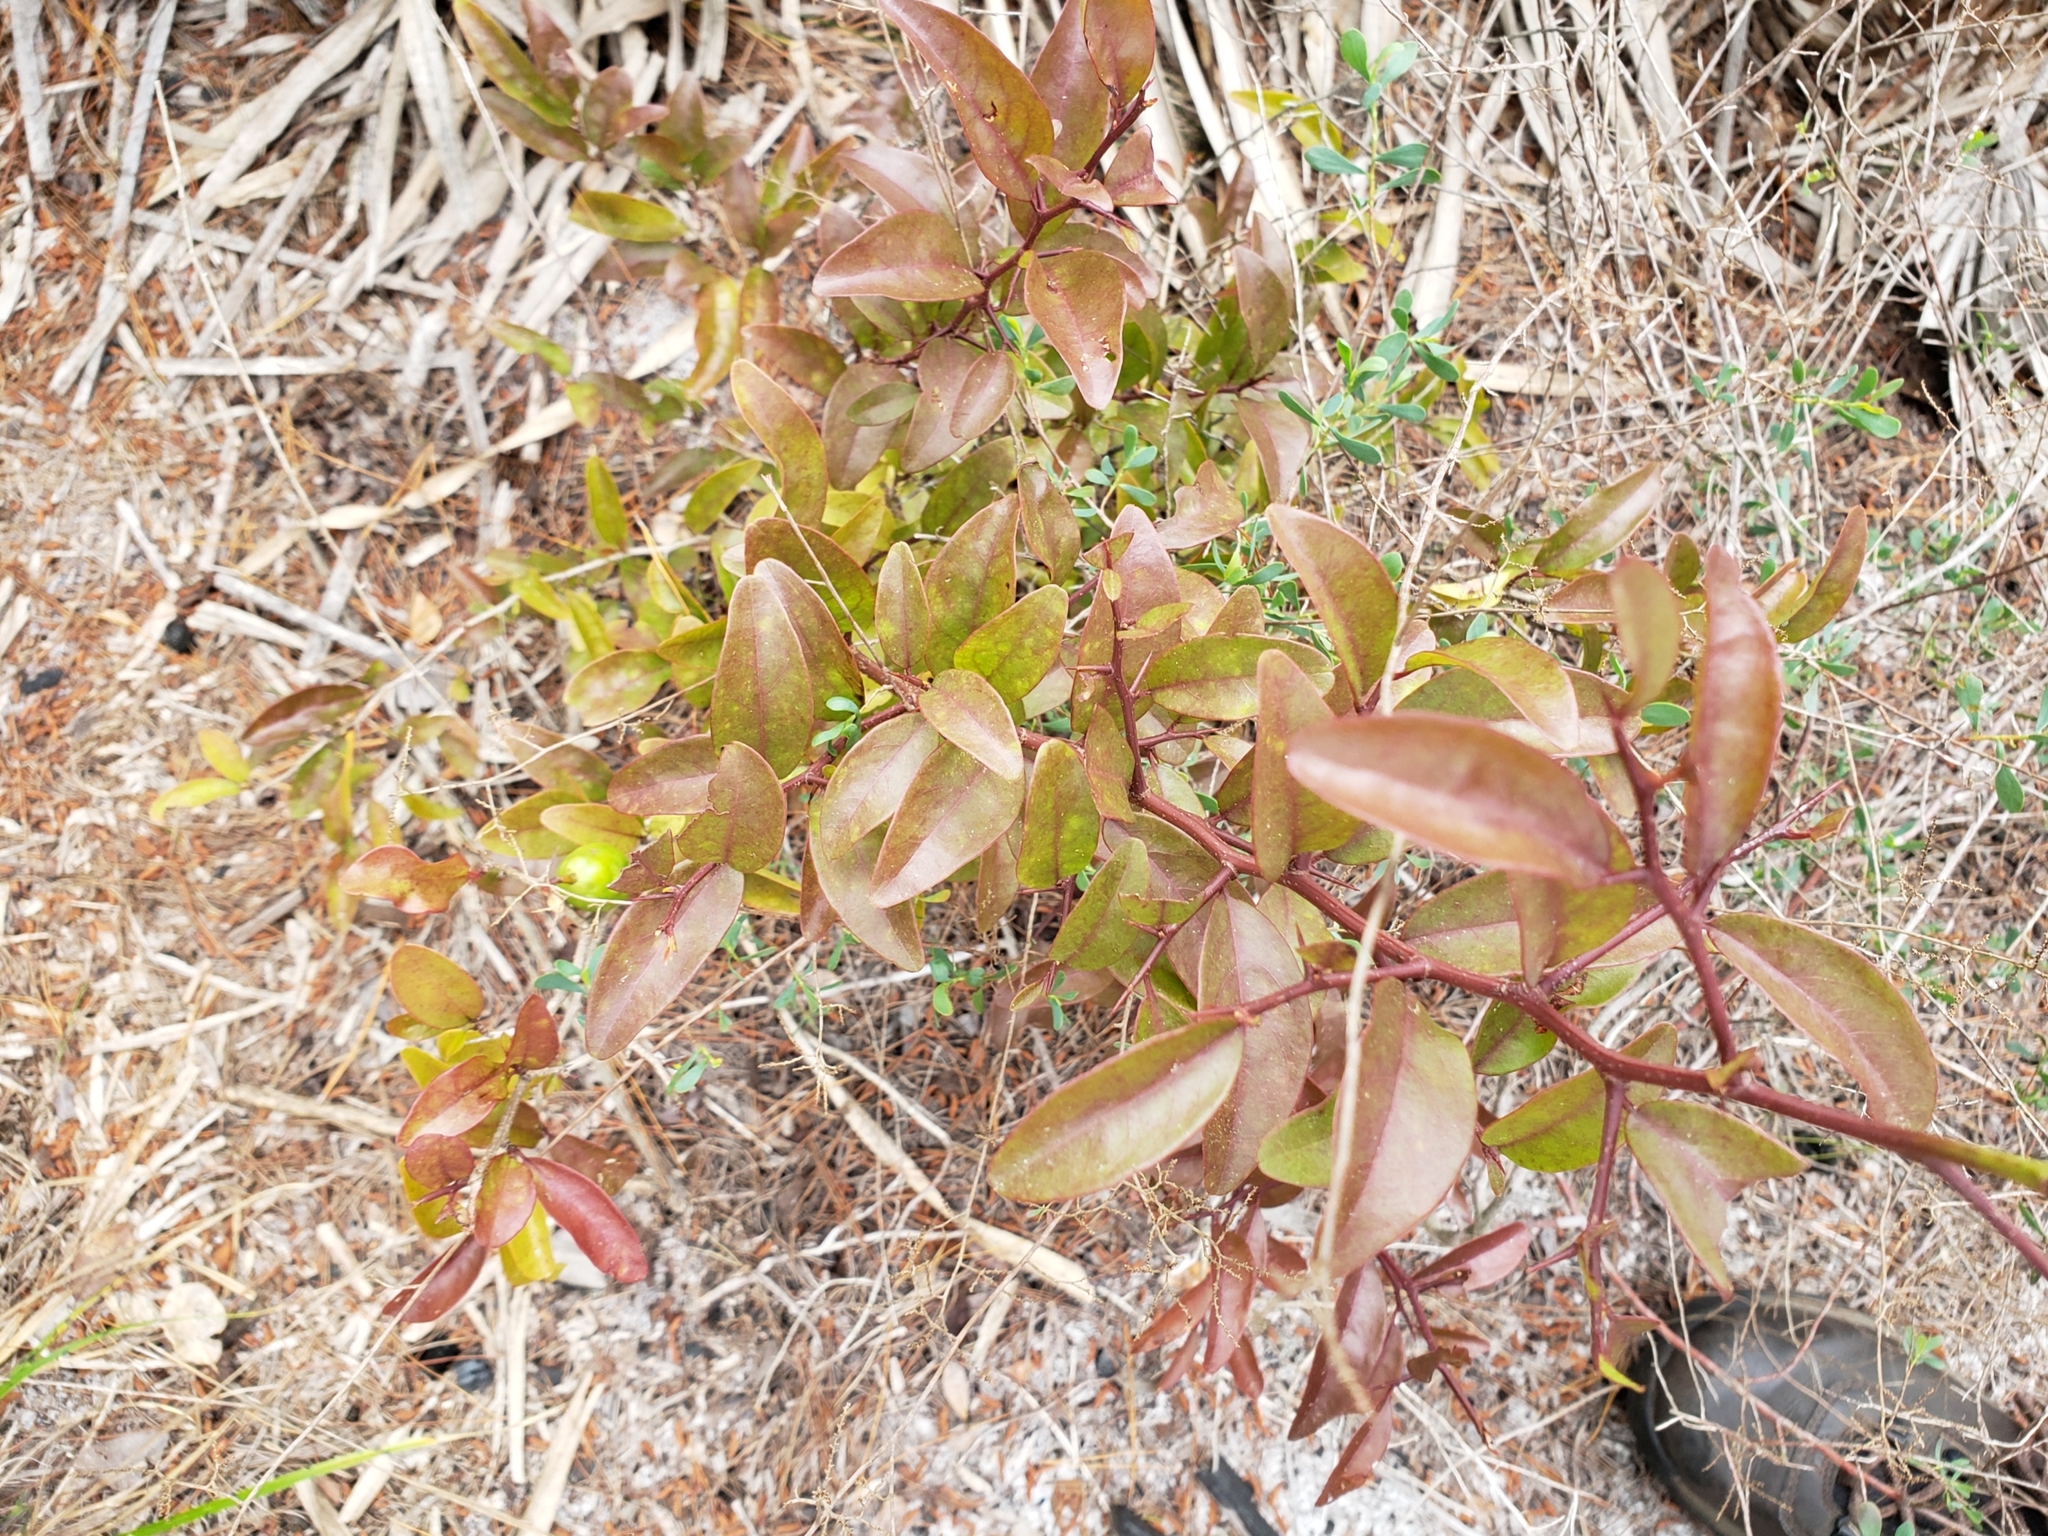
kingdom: Plantae
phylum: Tracheophyta
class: Magnoliopsida
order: Santalales
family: Ximeniaceae
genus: Ximenia
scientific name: Ximenia americana
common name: Tallowwood
